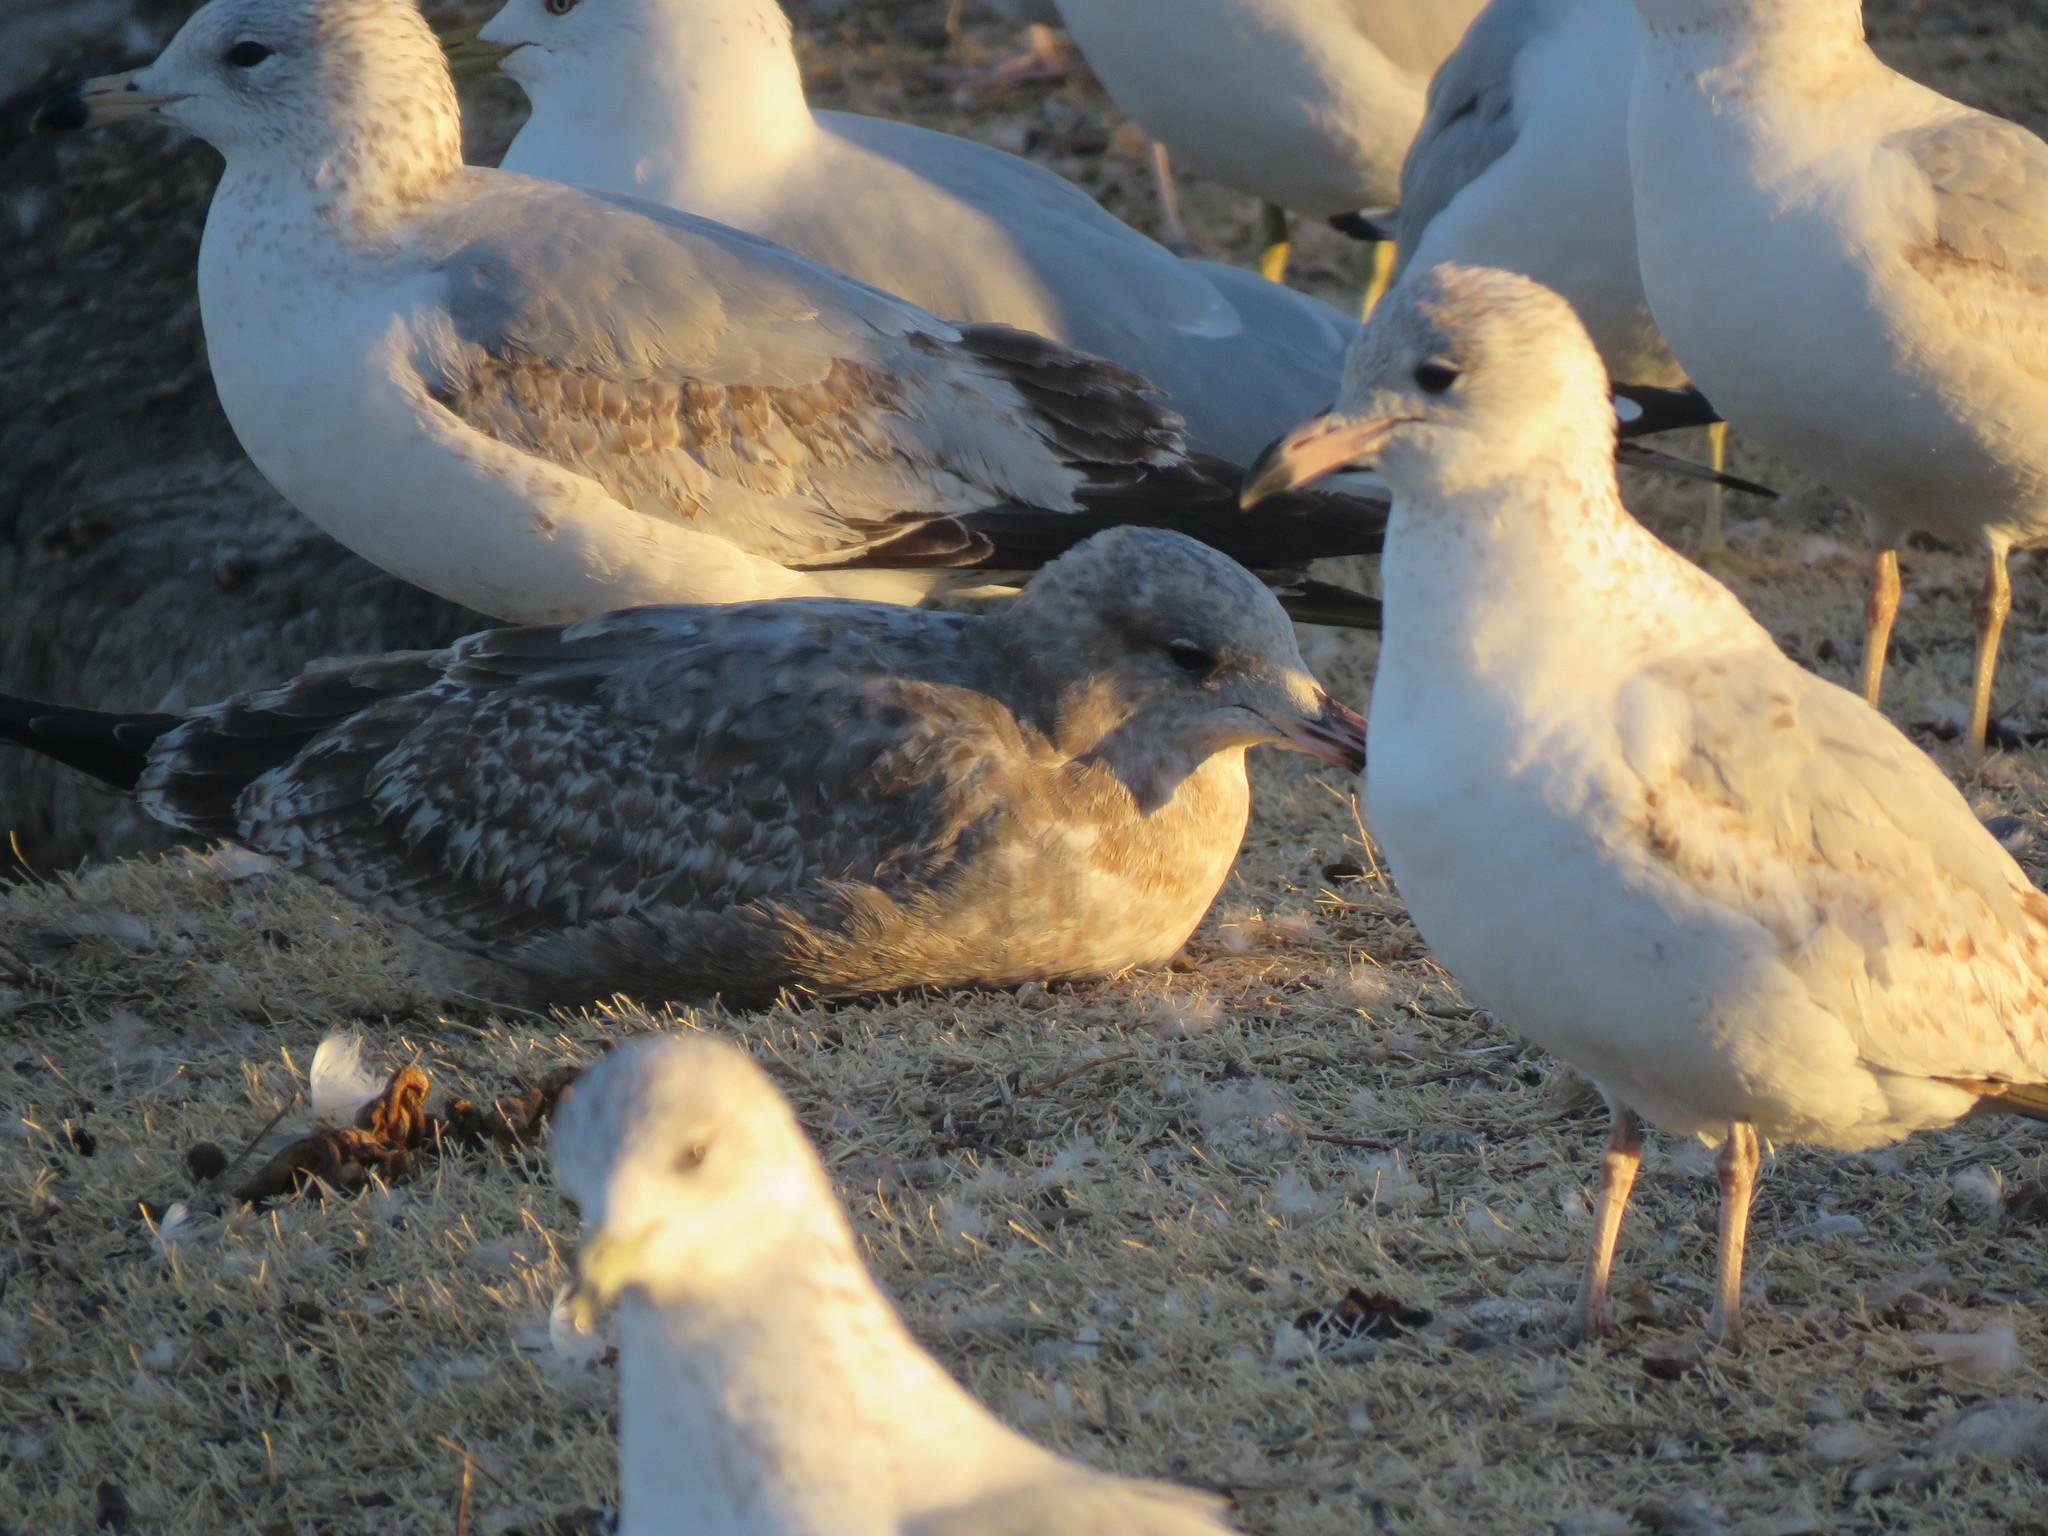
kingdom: Animalia
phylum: Chordata
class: Aves
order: Charadriiformes
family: Laridae
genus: Larus
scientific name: Larus californicus
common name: California gull
